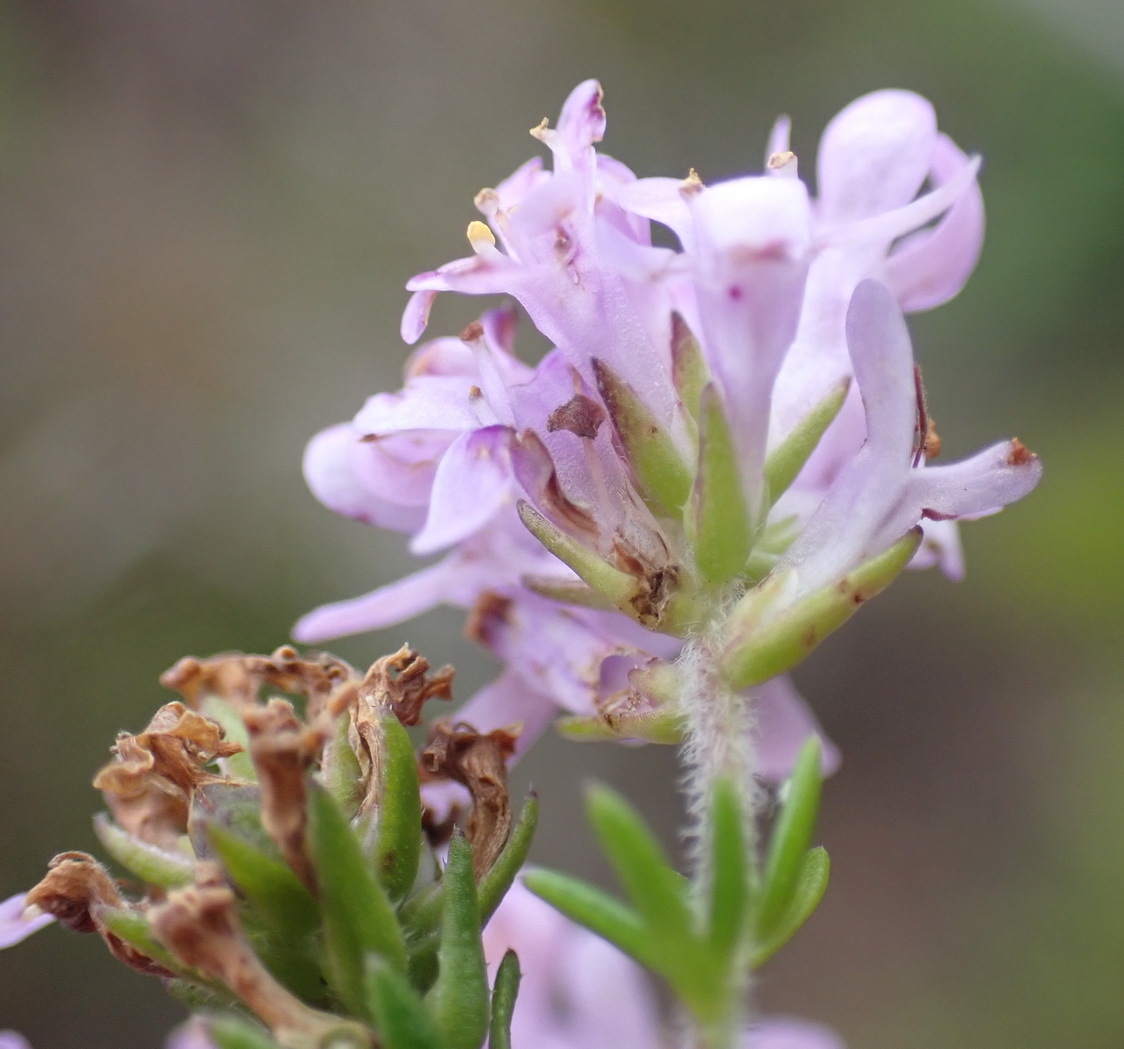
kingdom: Plantae
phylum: Tracheophyta
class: Magnoliopsida
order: Lamiales
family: Scrophulariaceae
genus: Selago
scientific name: Selago villicaulis
